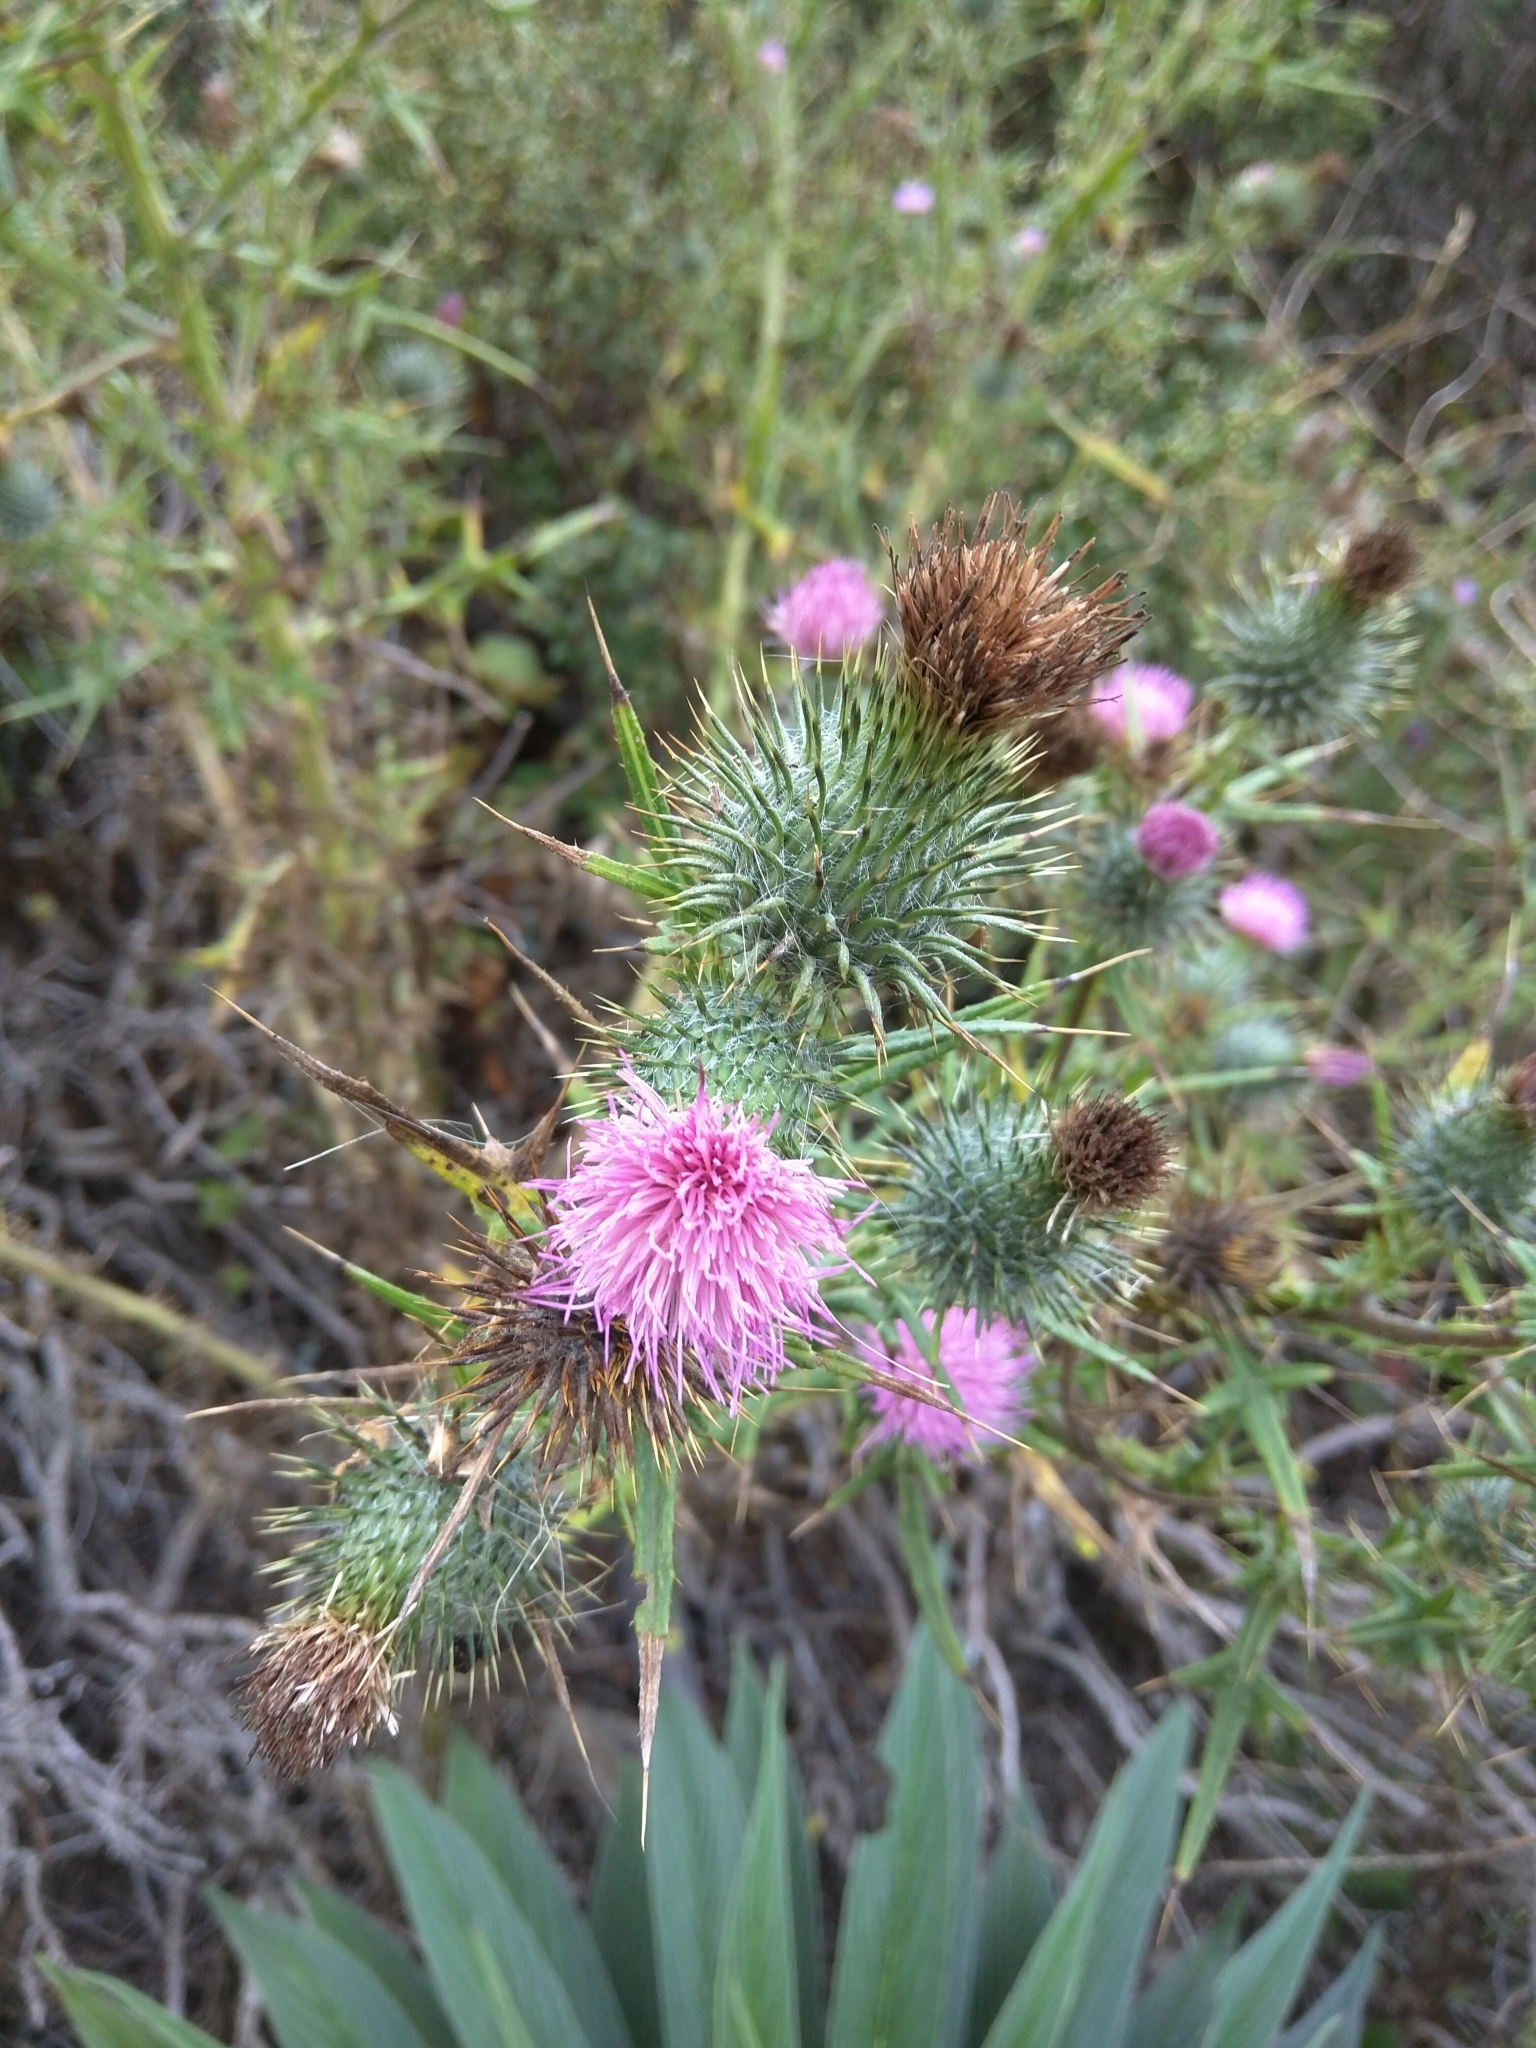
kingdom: Plantae
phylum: Tracheophyta
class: Magnoliopsida
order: Asterales
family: Asteraceae
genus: Cirsium
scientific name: Cirsium vulgare
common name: Bull thistle
